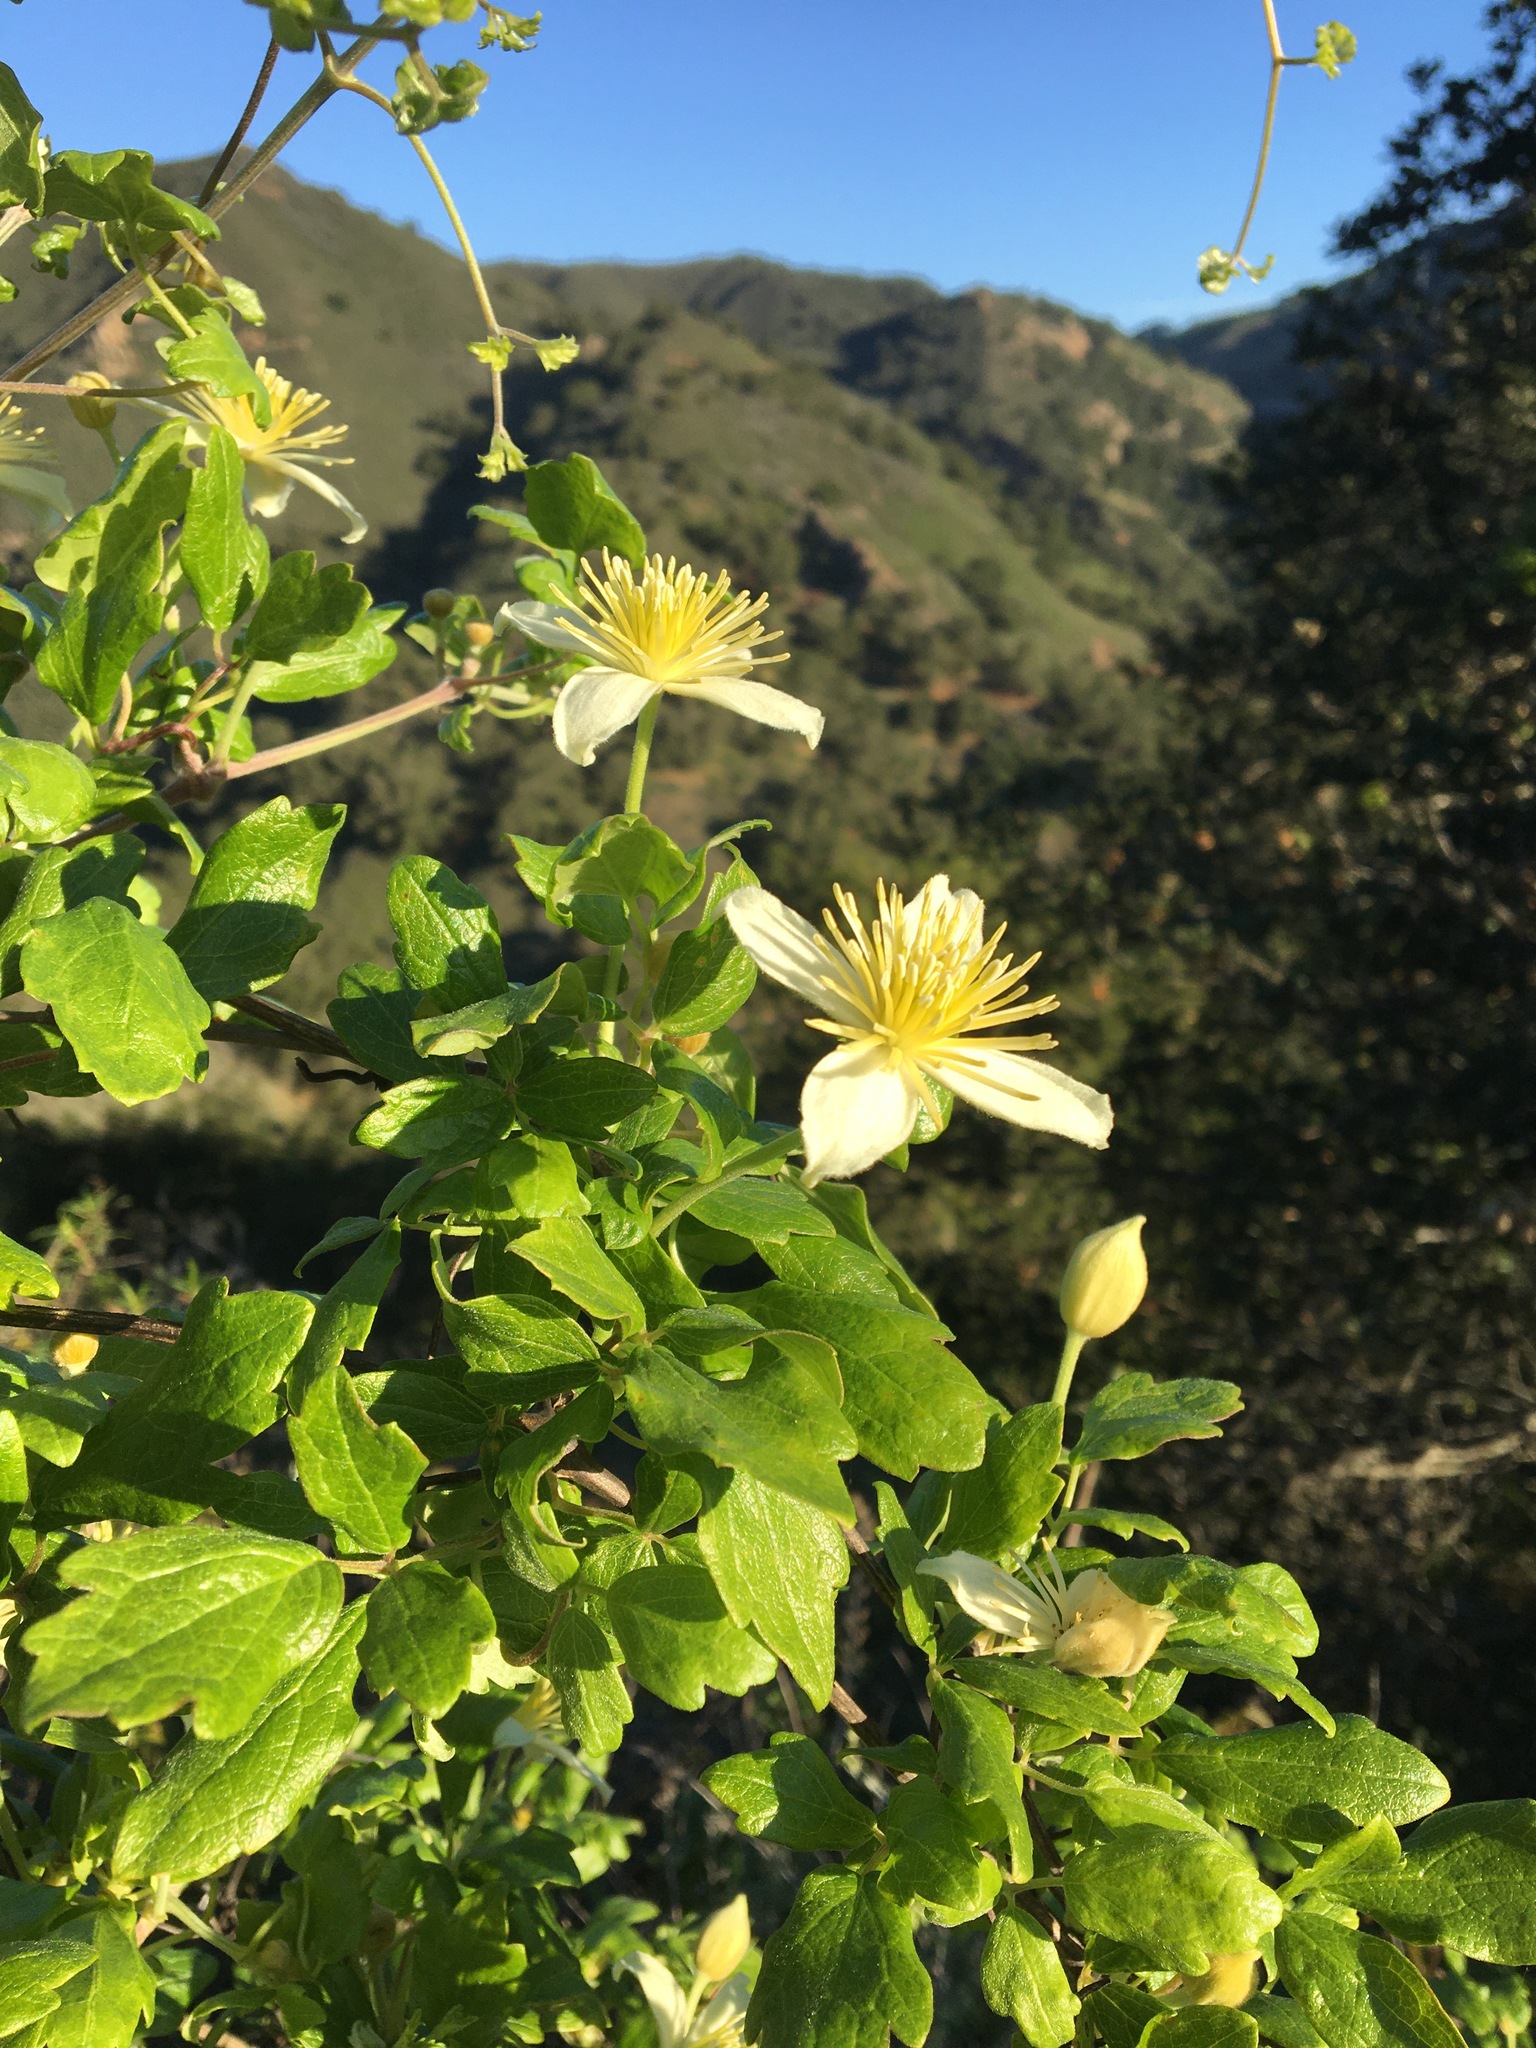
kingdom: Plantae
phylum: Tracheophyta
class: Magnoliopsida
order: Ranunculales
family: Ranunculaceae
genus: Clematis
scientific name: Clematis lasiantha
